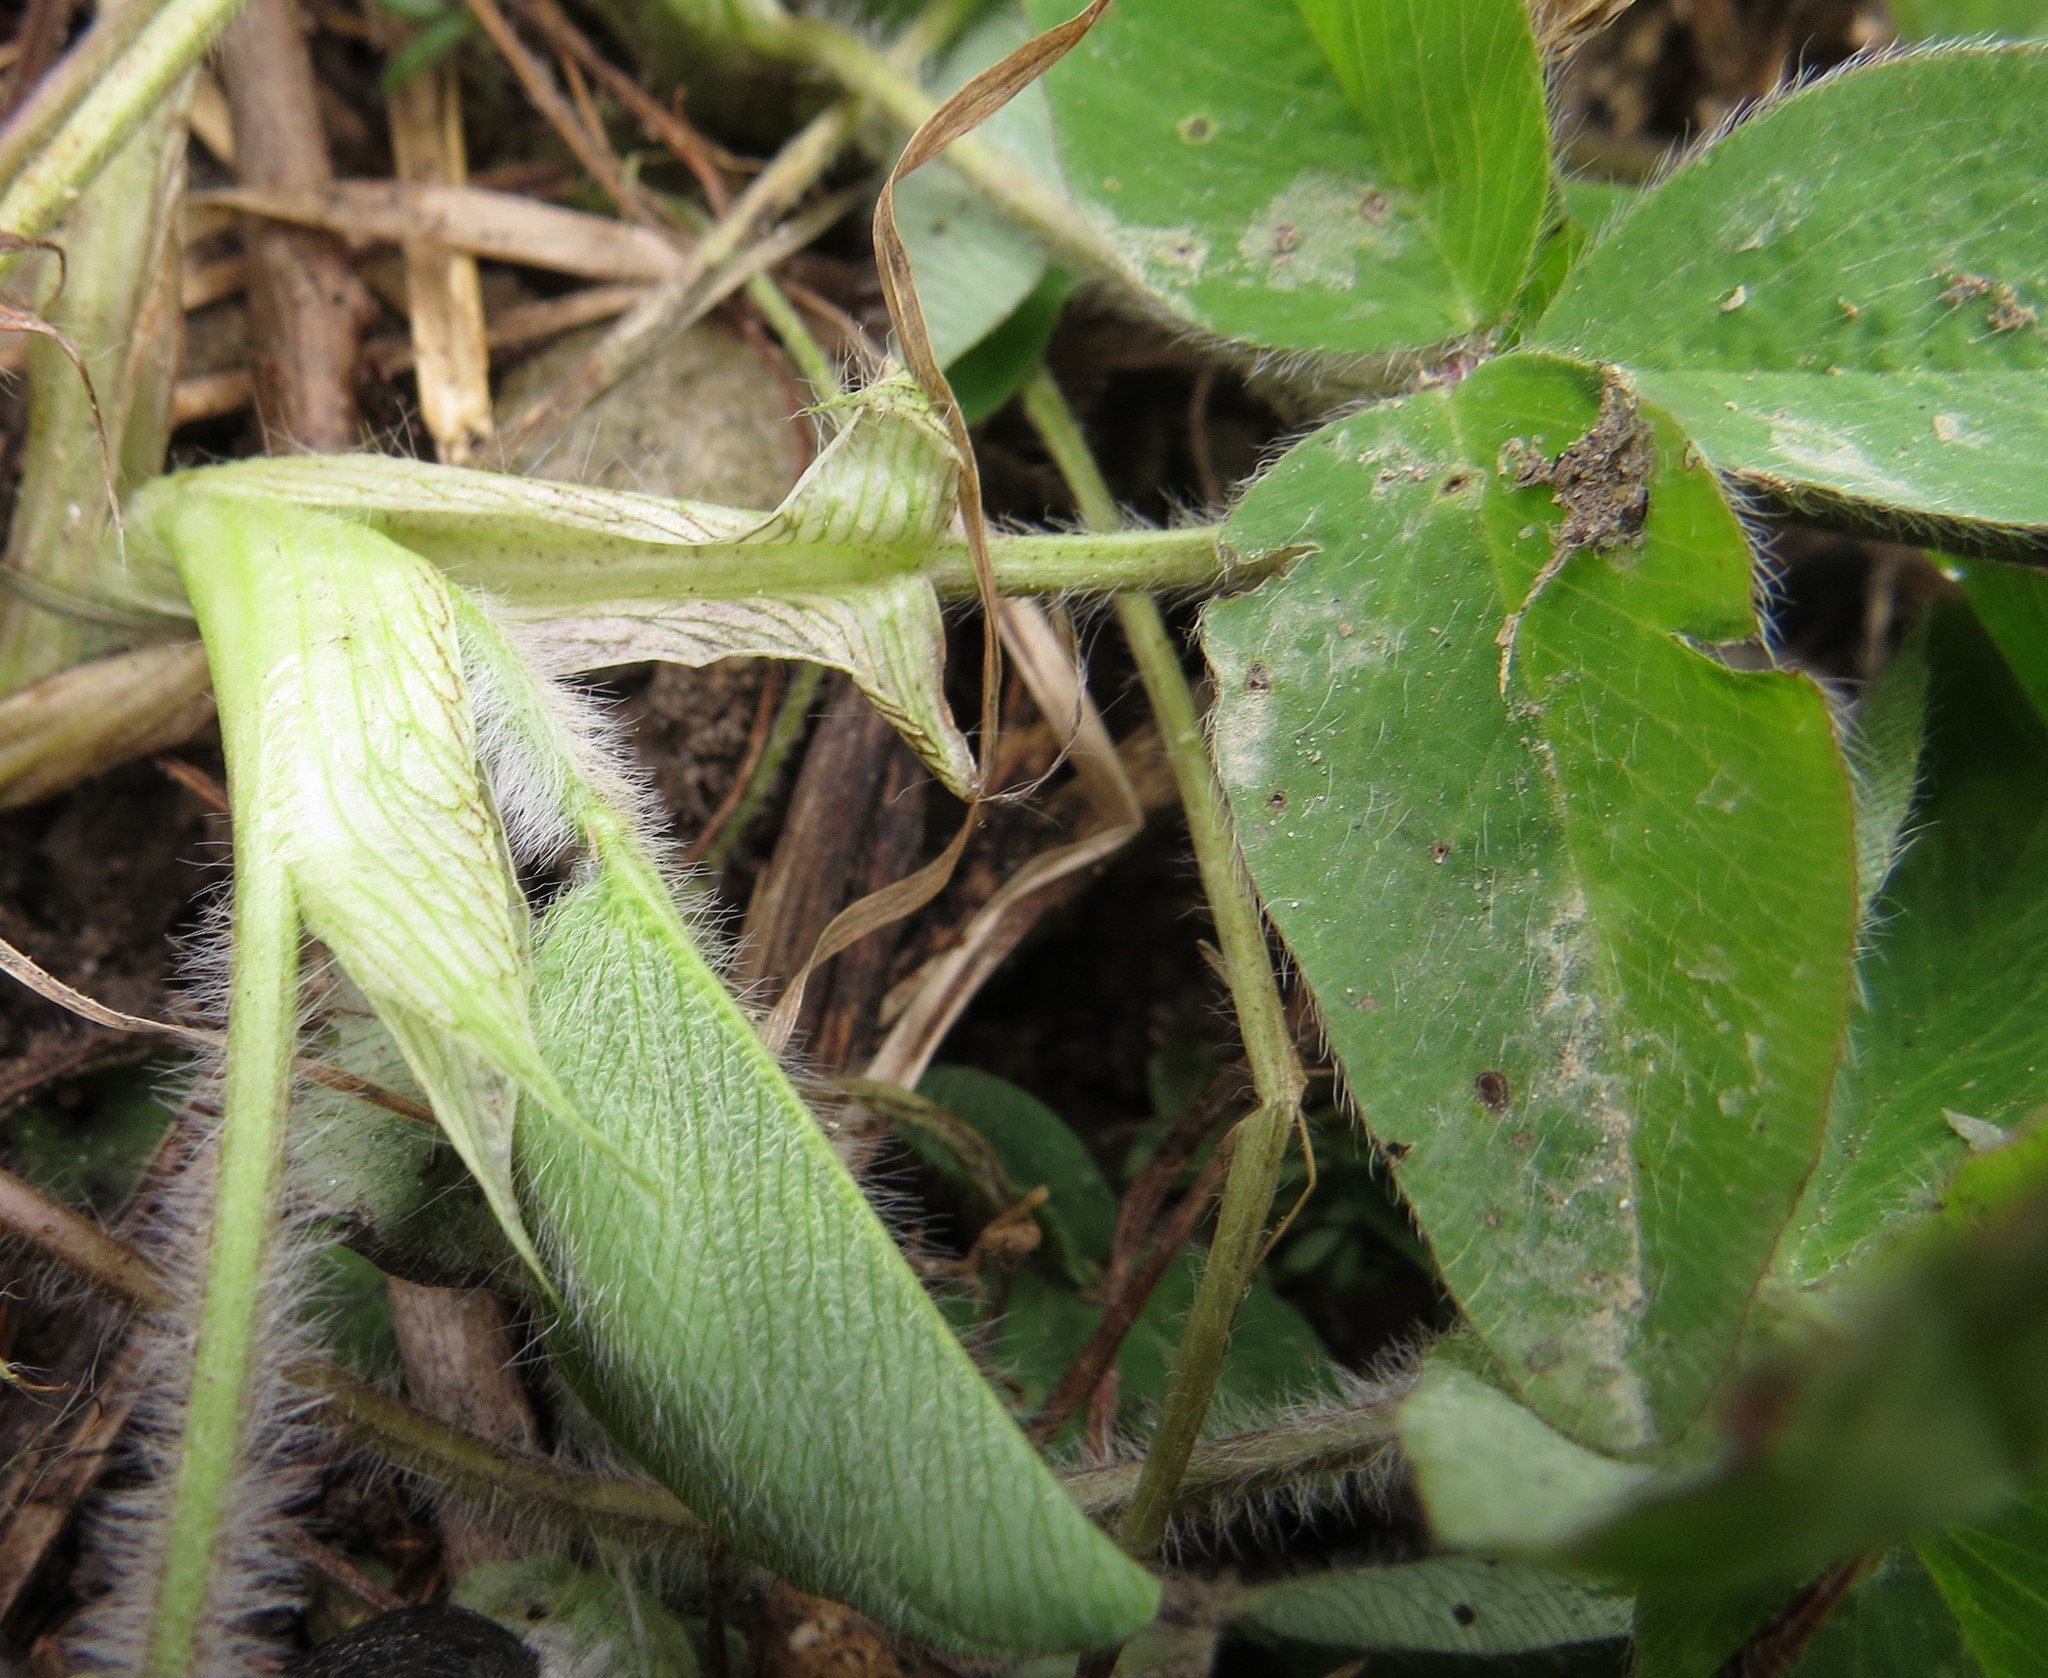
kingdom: Plantae
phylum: Tracheophyta
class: Magnoliopsida
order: Fabales
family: Fabaceae
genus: Trifolium
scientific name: Trifolium pratense
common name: Red clover
